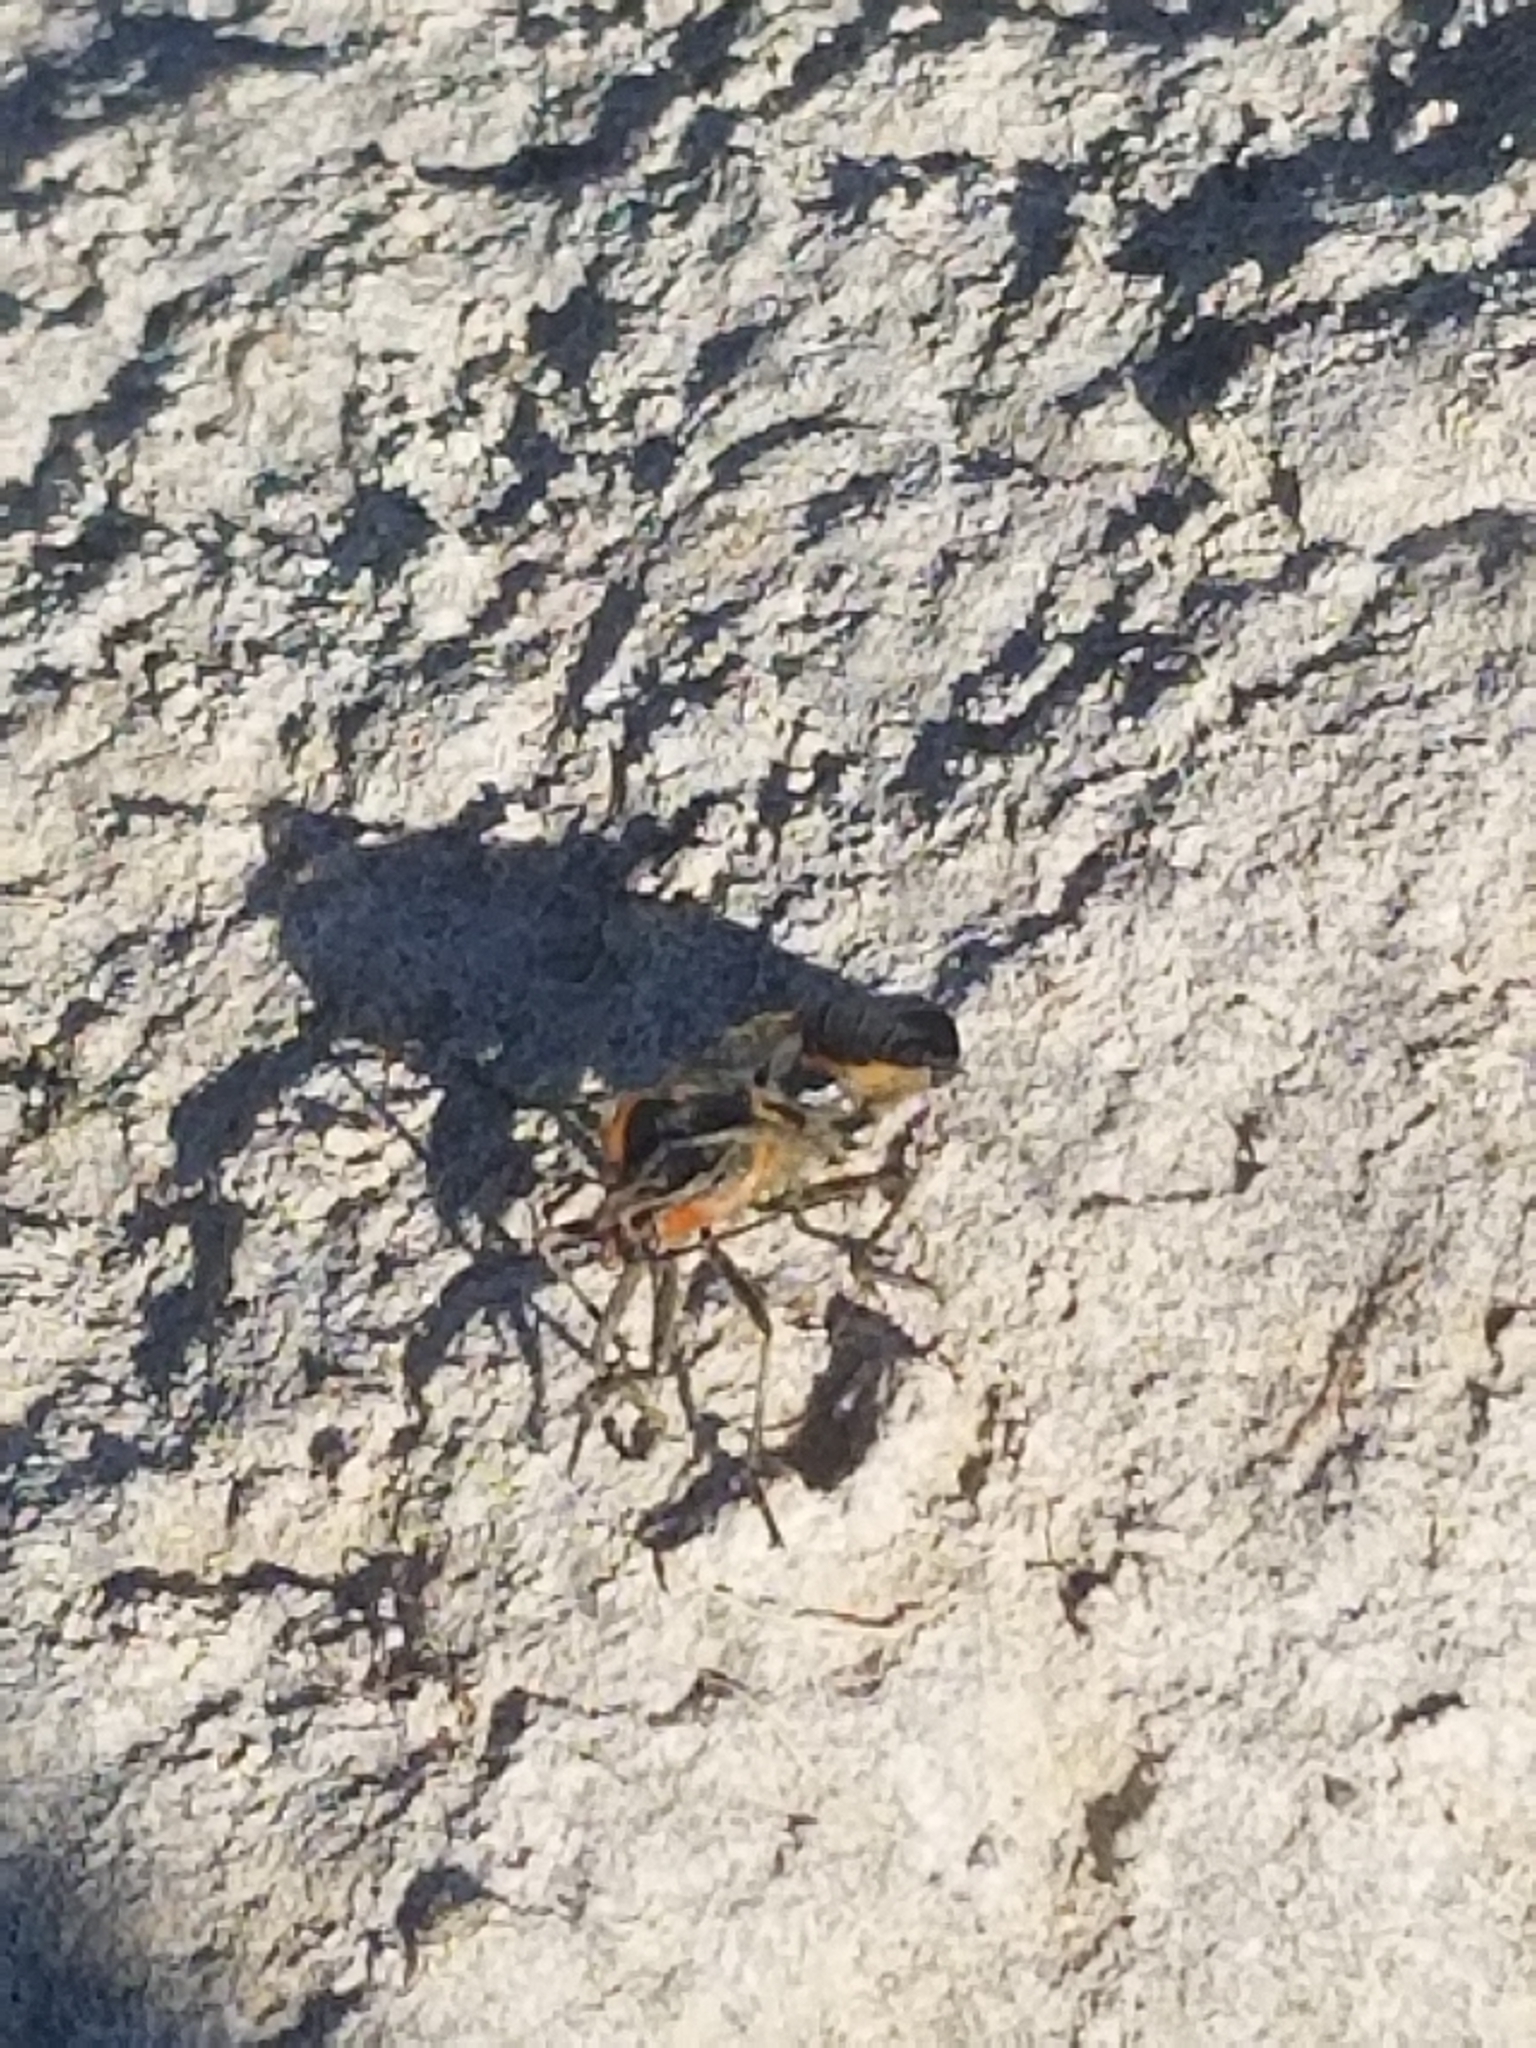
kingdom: Animalia
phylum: Arthropoda
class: Insecta
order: Hemiptera
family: Lygaeidae
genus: Oncopeltus
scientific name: Oncopeltus fasciatus
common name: Large milkweed bug
